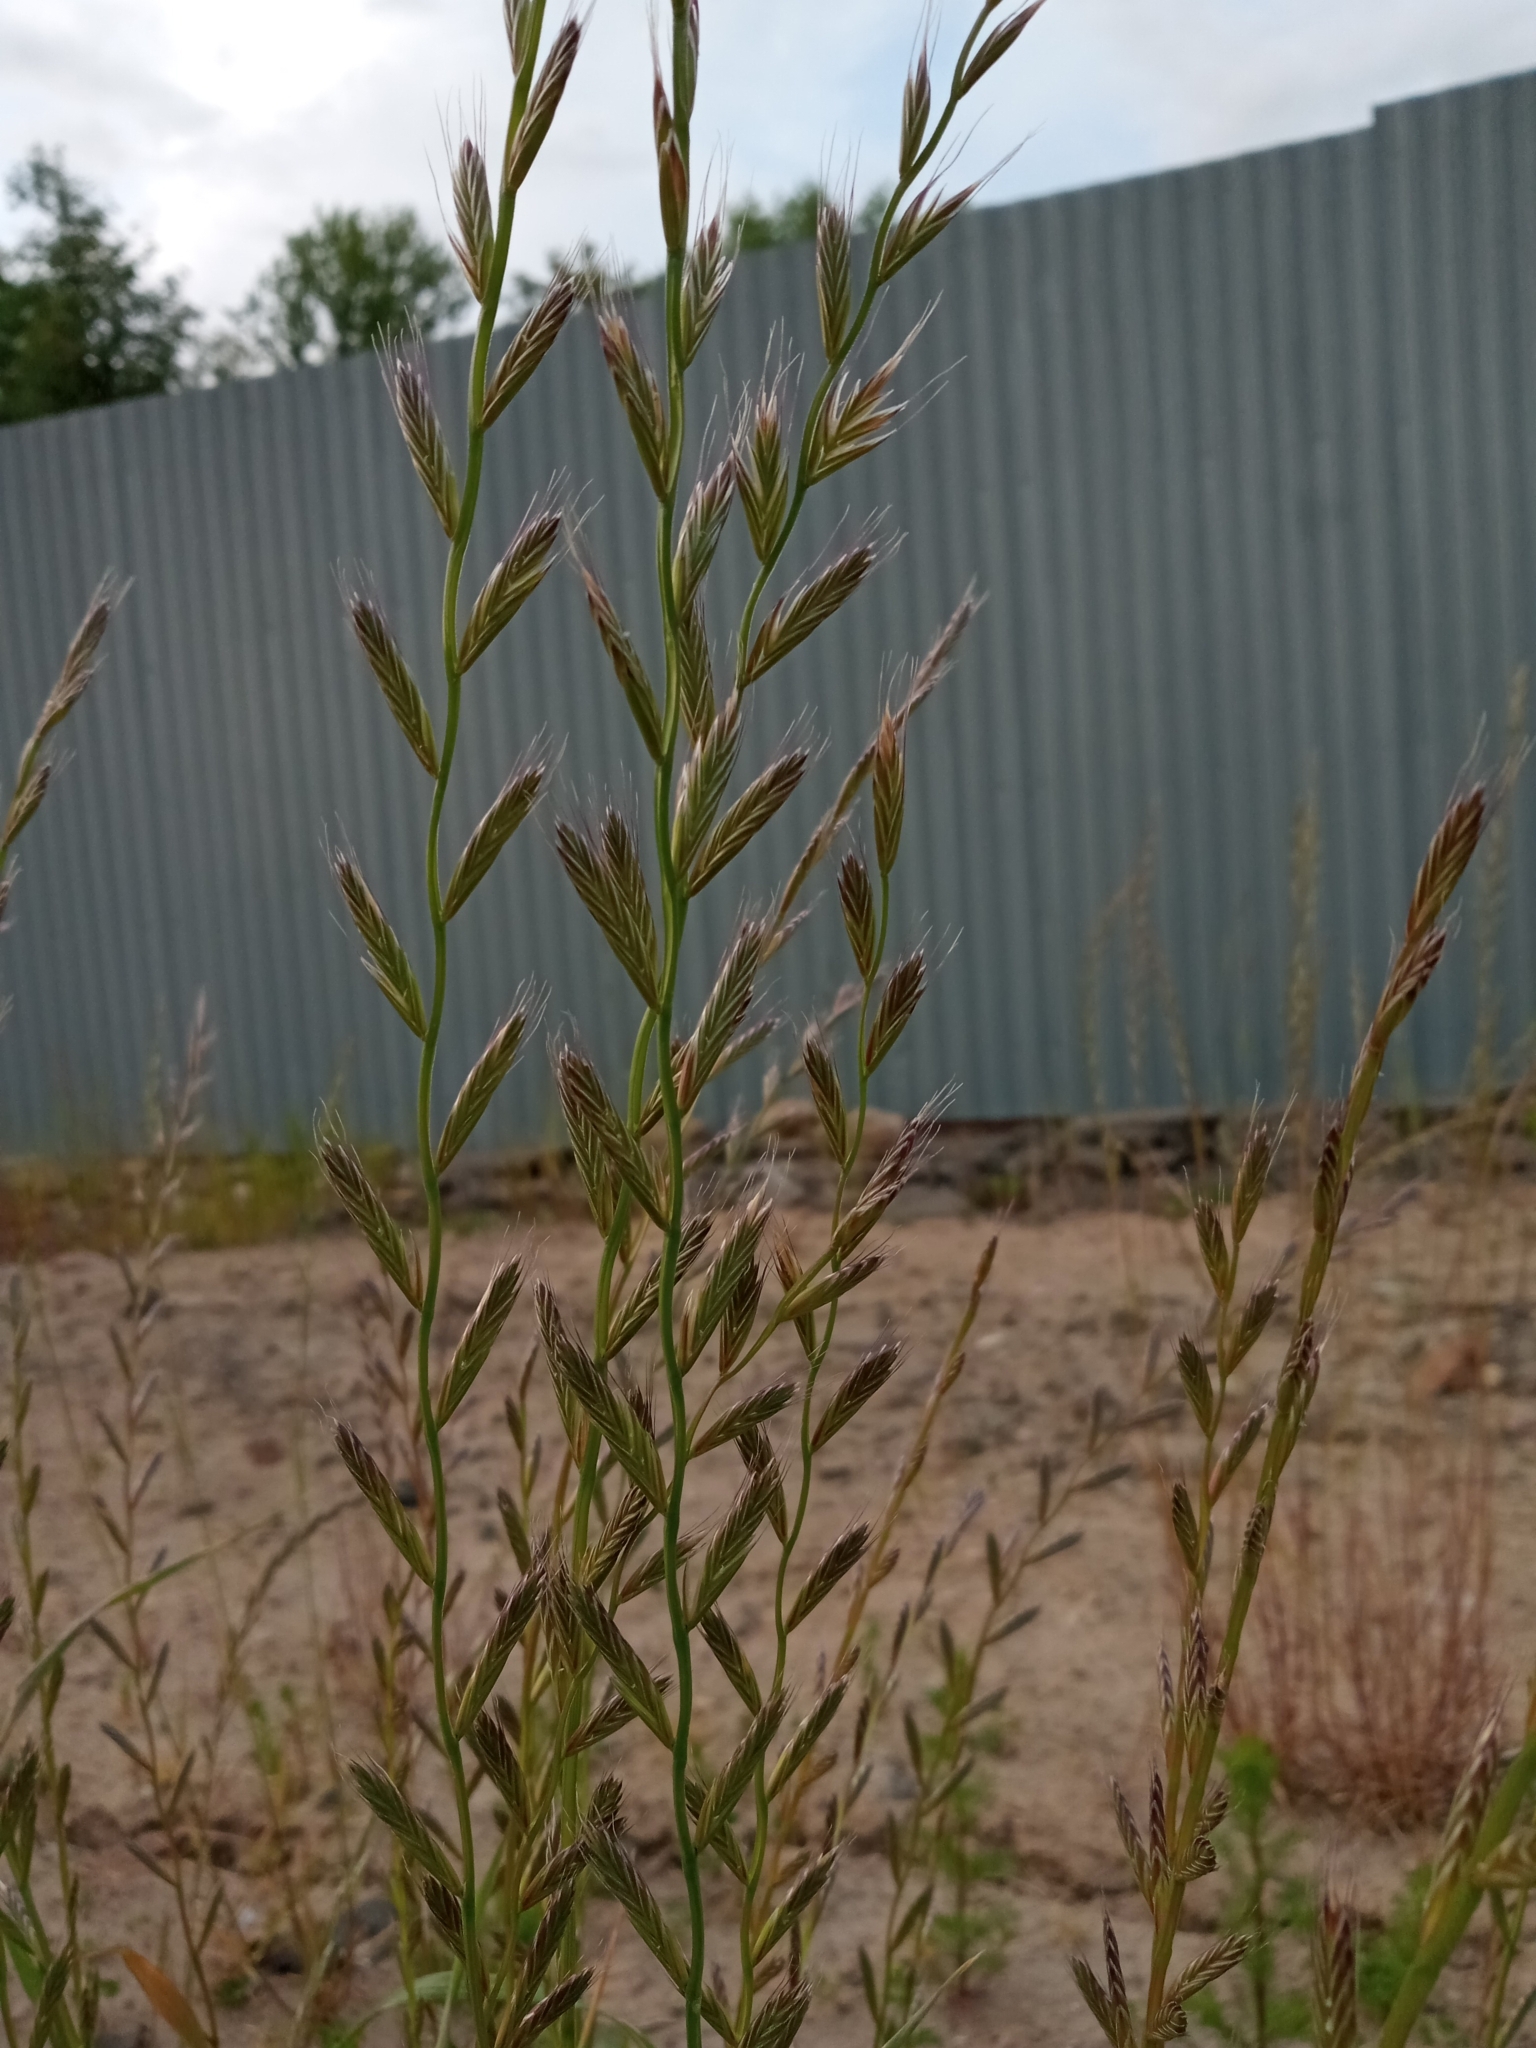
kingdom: Plantae
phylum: Tracheophyta
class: Liliopsida
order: Poales
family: Poaceae
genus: Lolium
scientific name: Lolium multiflorum
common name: Annual ryegrass
